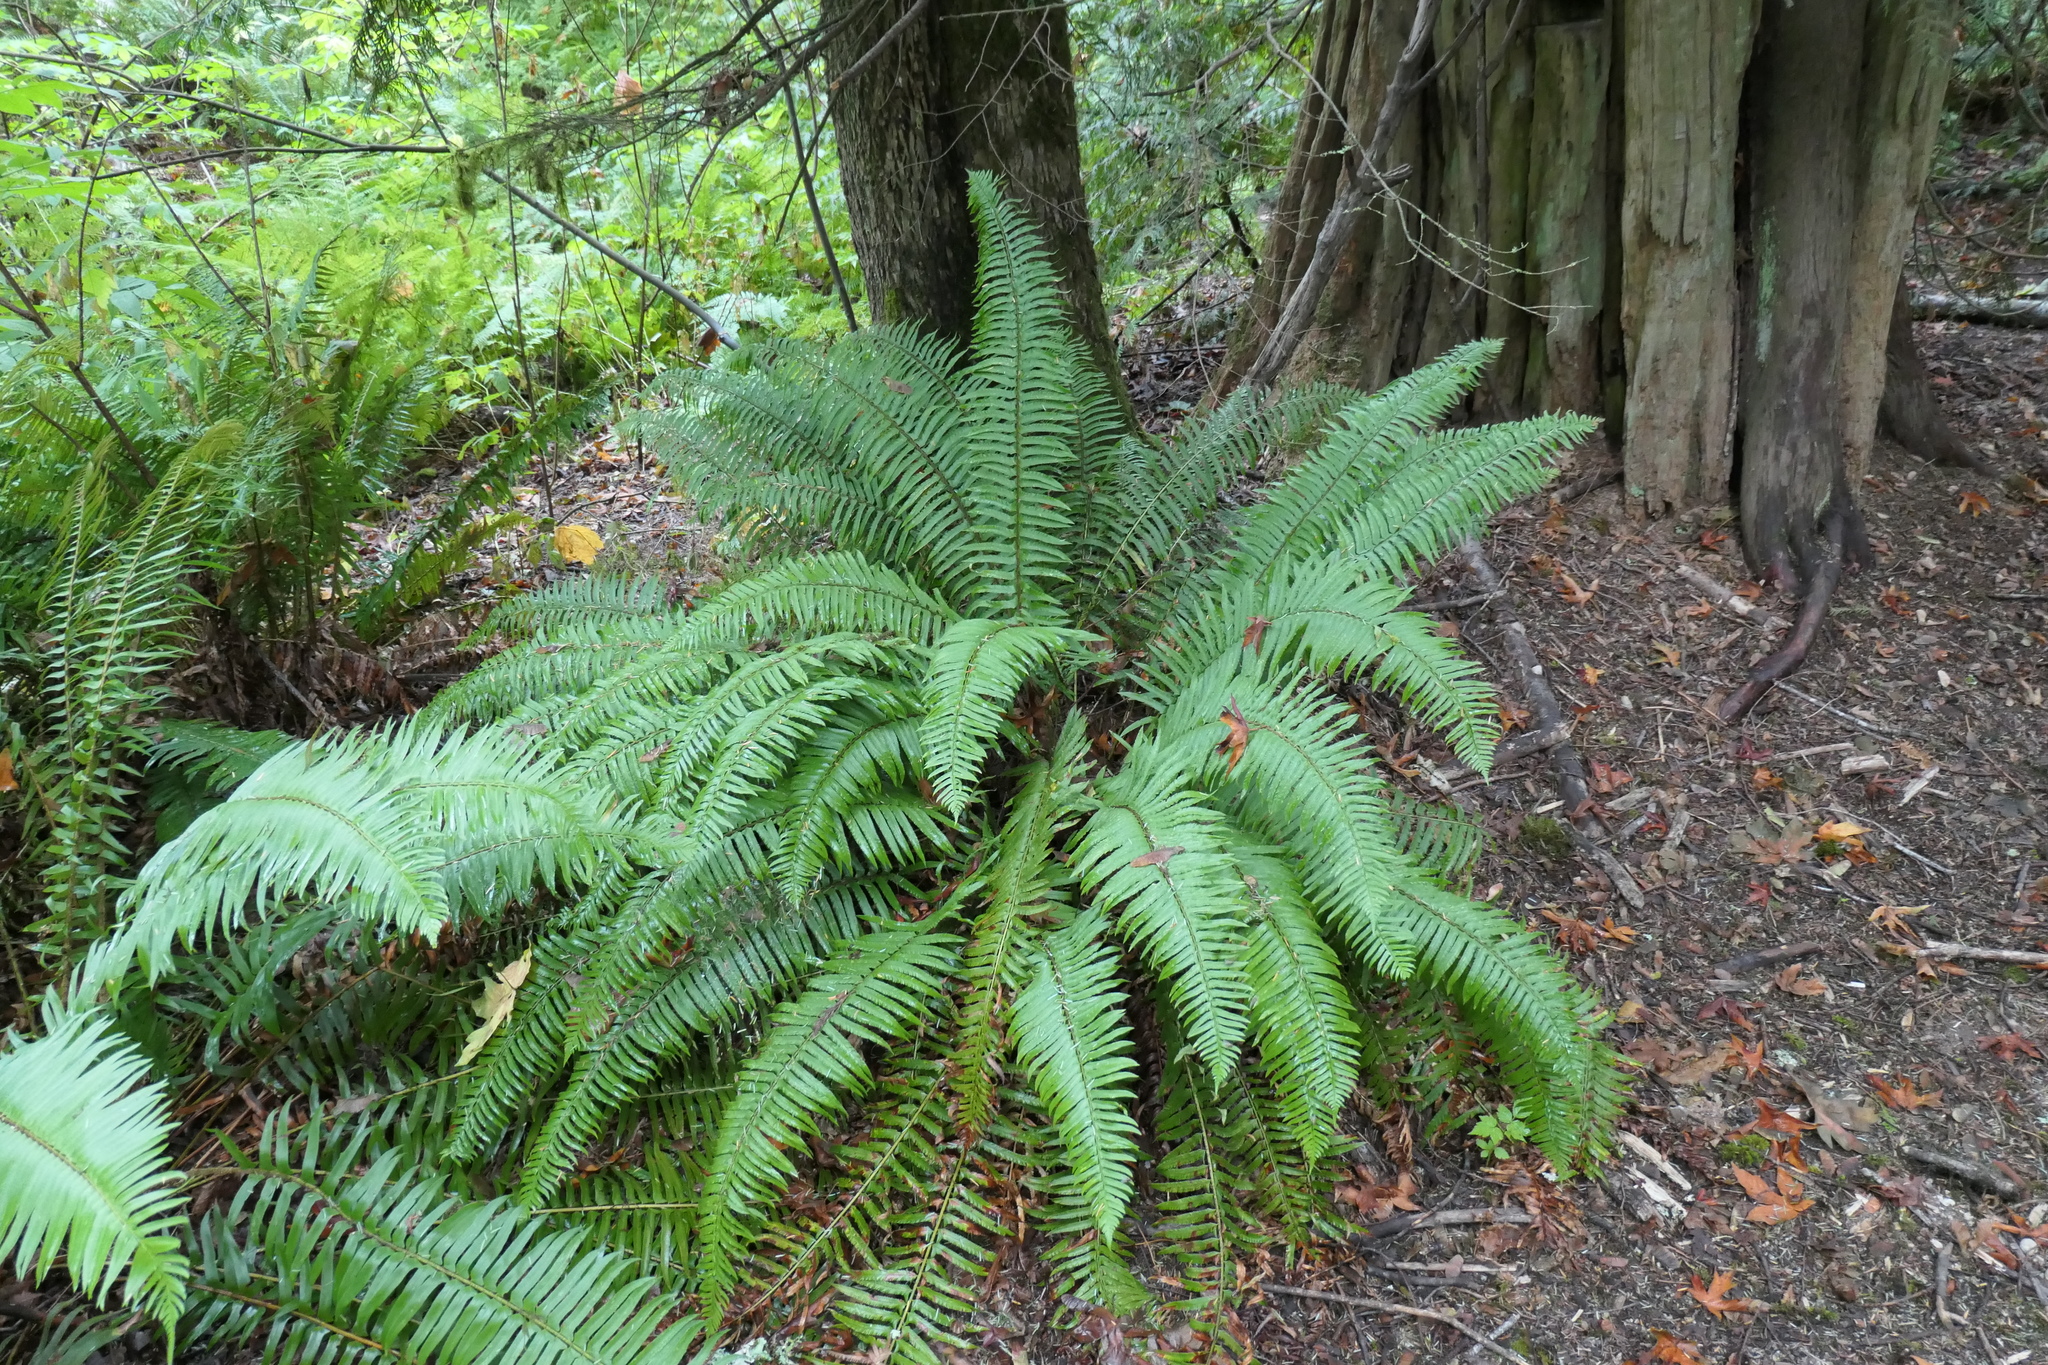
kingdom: Plantae
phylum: Tracheophyta
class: Polypodiopsida
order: Polypodiales
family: Dryopteridaceae
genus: Polystichum
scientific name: Polystichum munitum
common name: Western sword-fern
